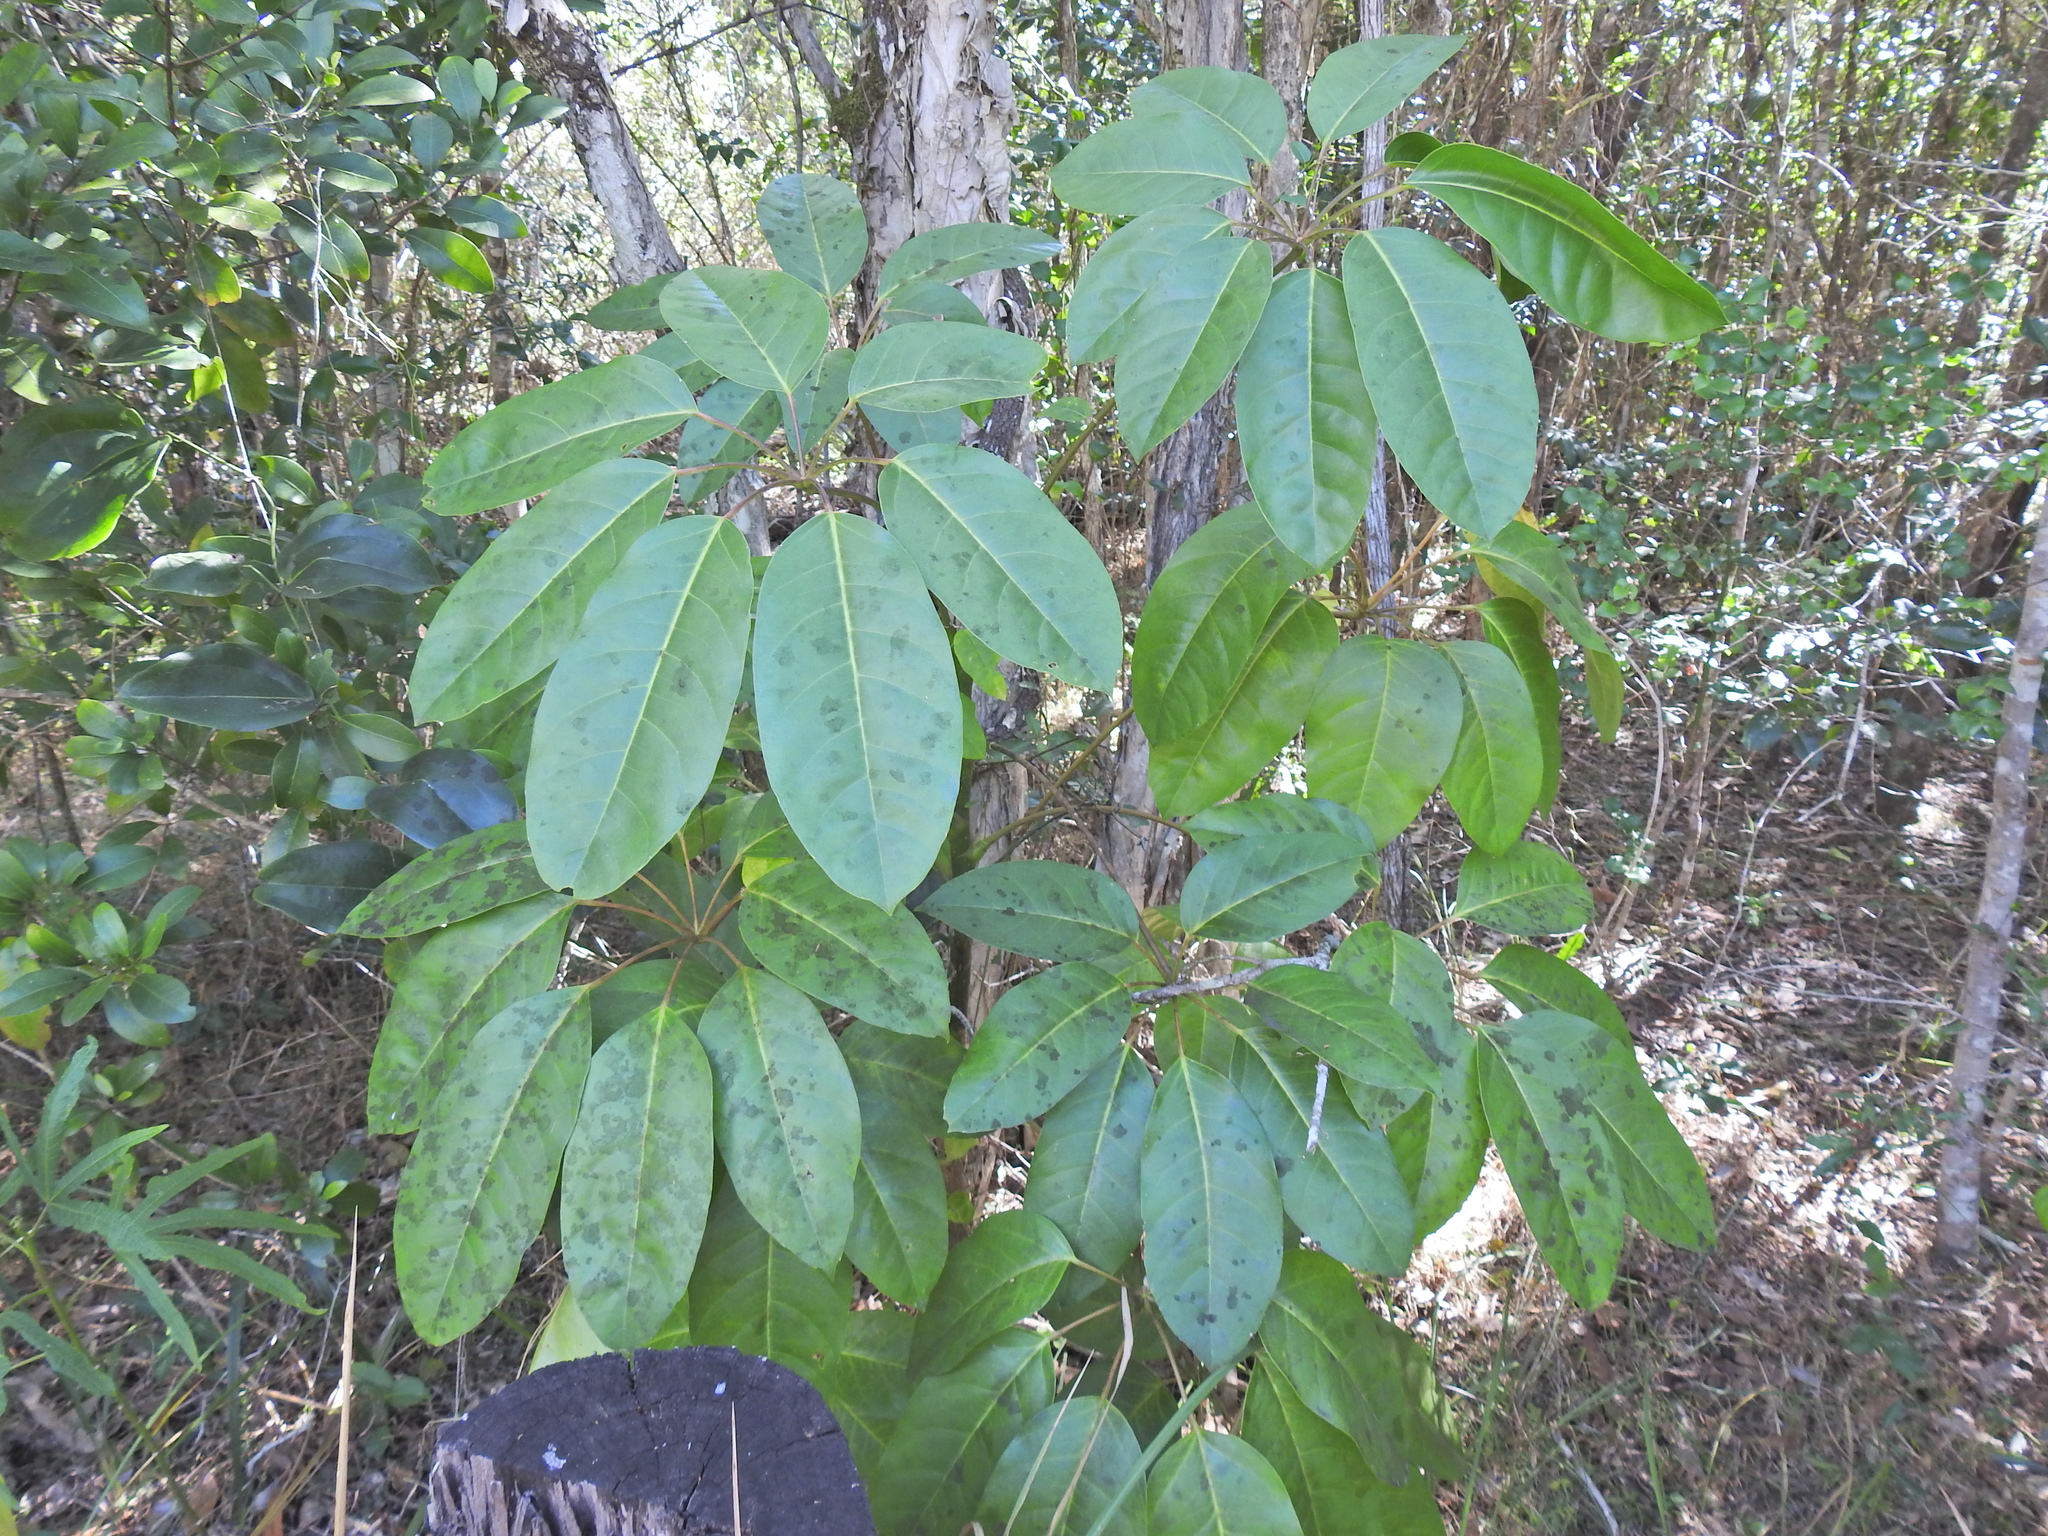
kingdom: Plantae
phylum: Tracheophyta
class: Magnoliopsida
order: Apiales
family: Araliaceae
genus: Heptapleurum
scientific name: Heptapleurum actinophyllum
